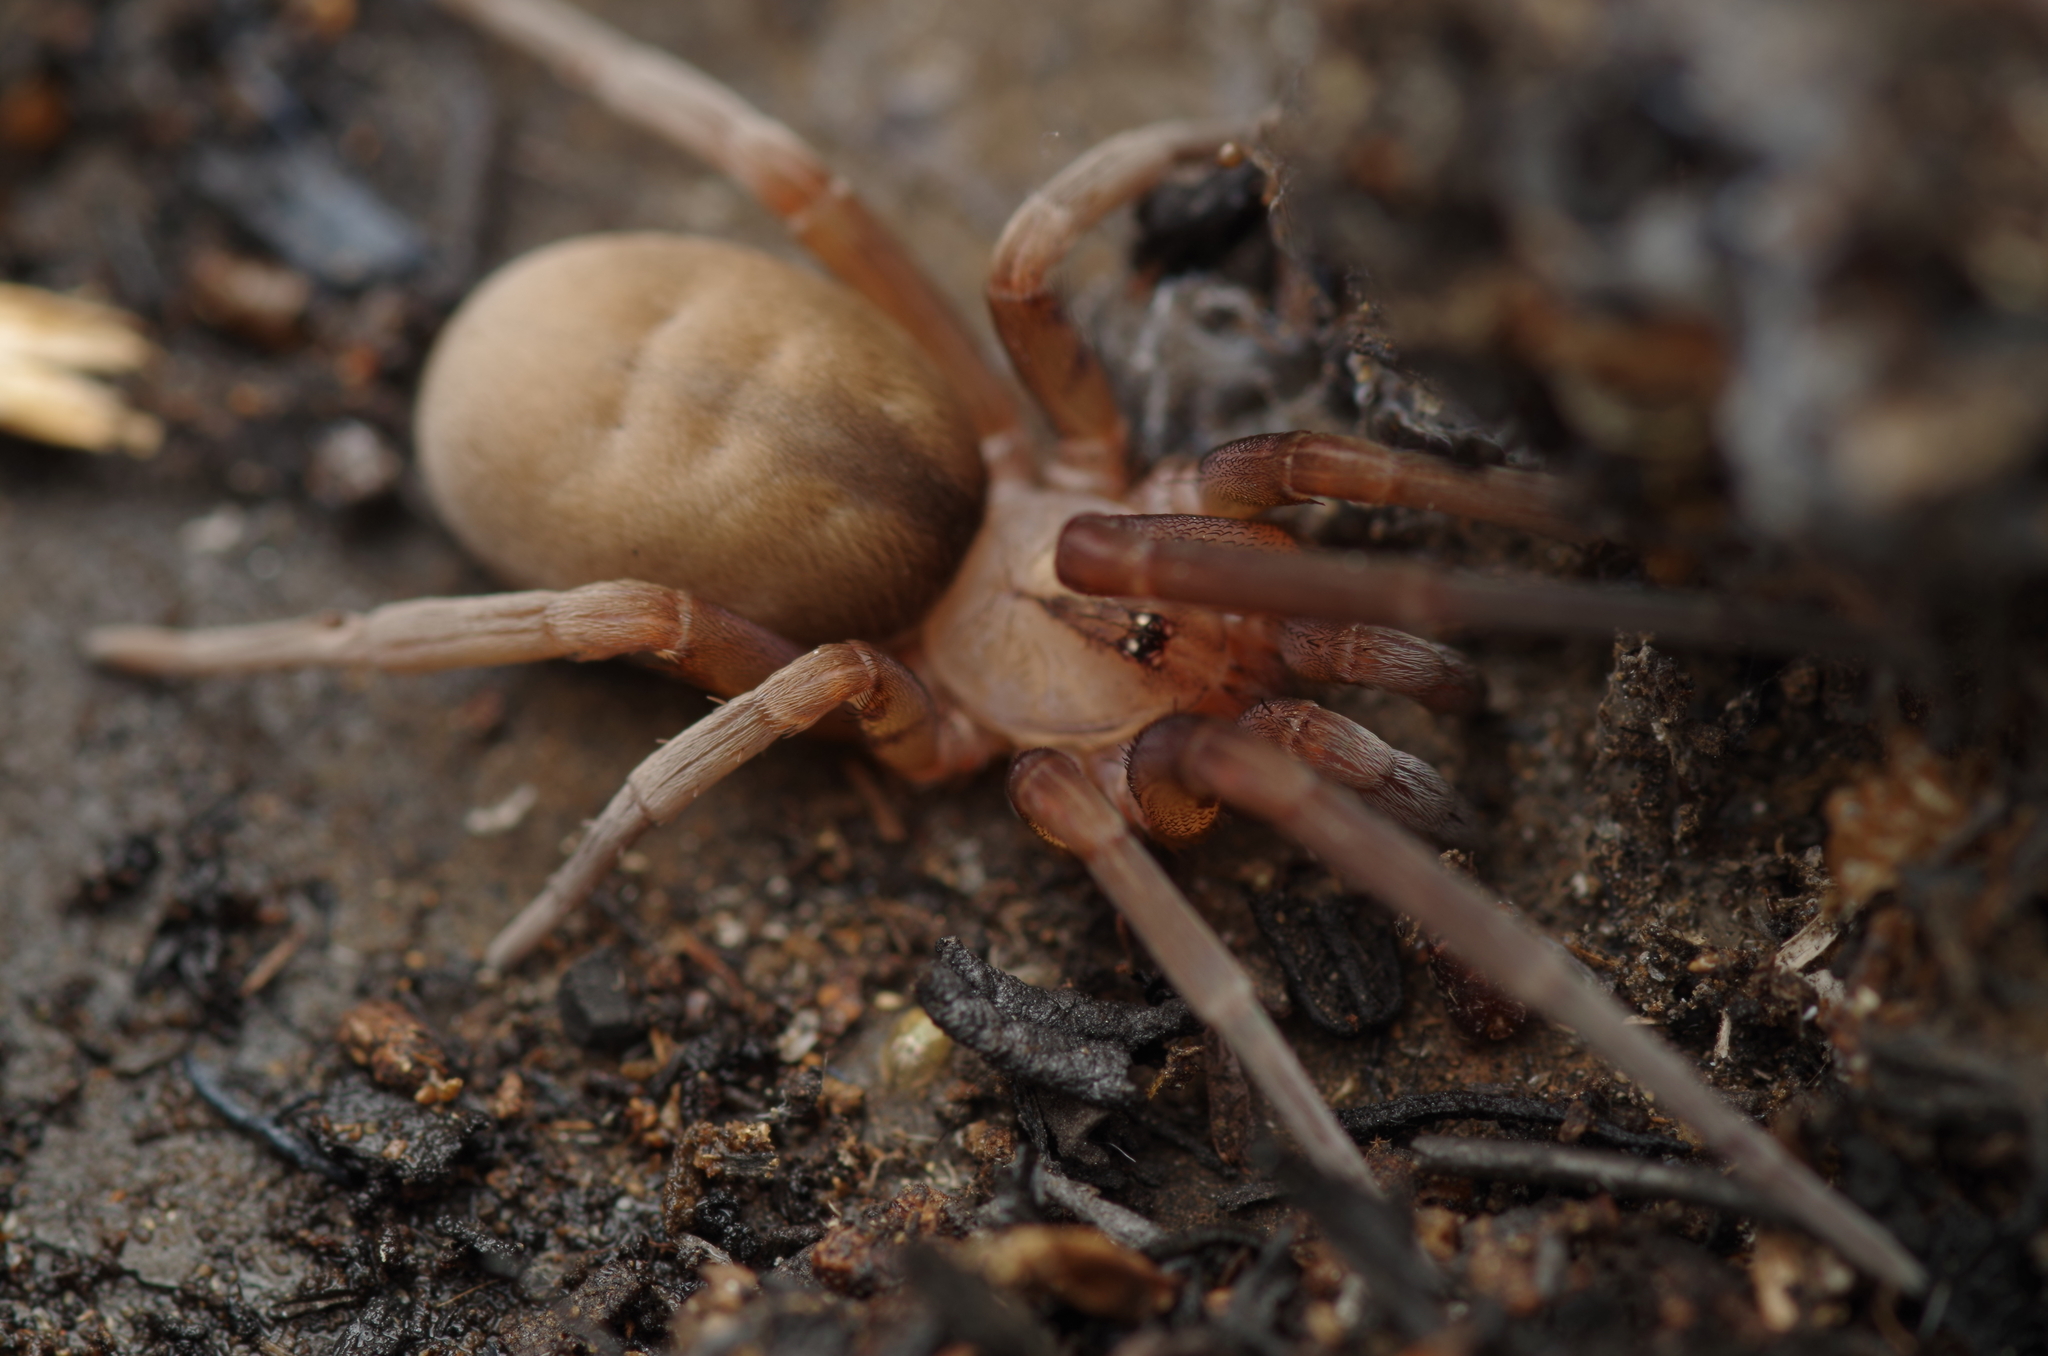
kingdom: Animalia
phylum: Arthropoda
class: Arachnida
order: Araneae
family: Filistatidae
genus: Filistata
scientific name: Filistata insidiatrix
